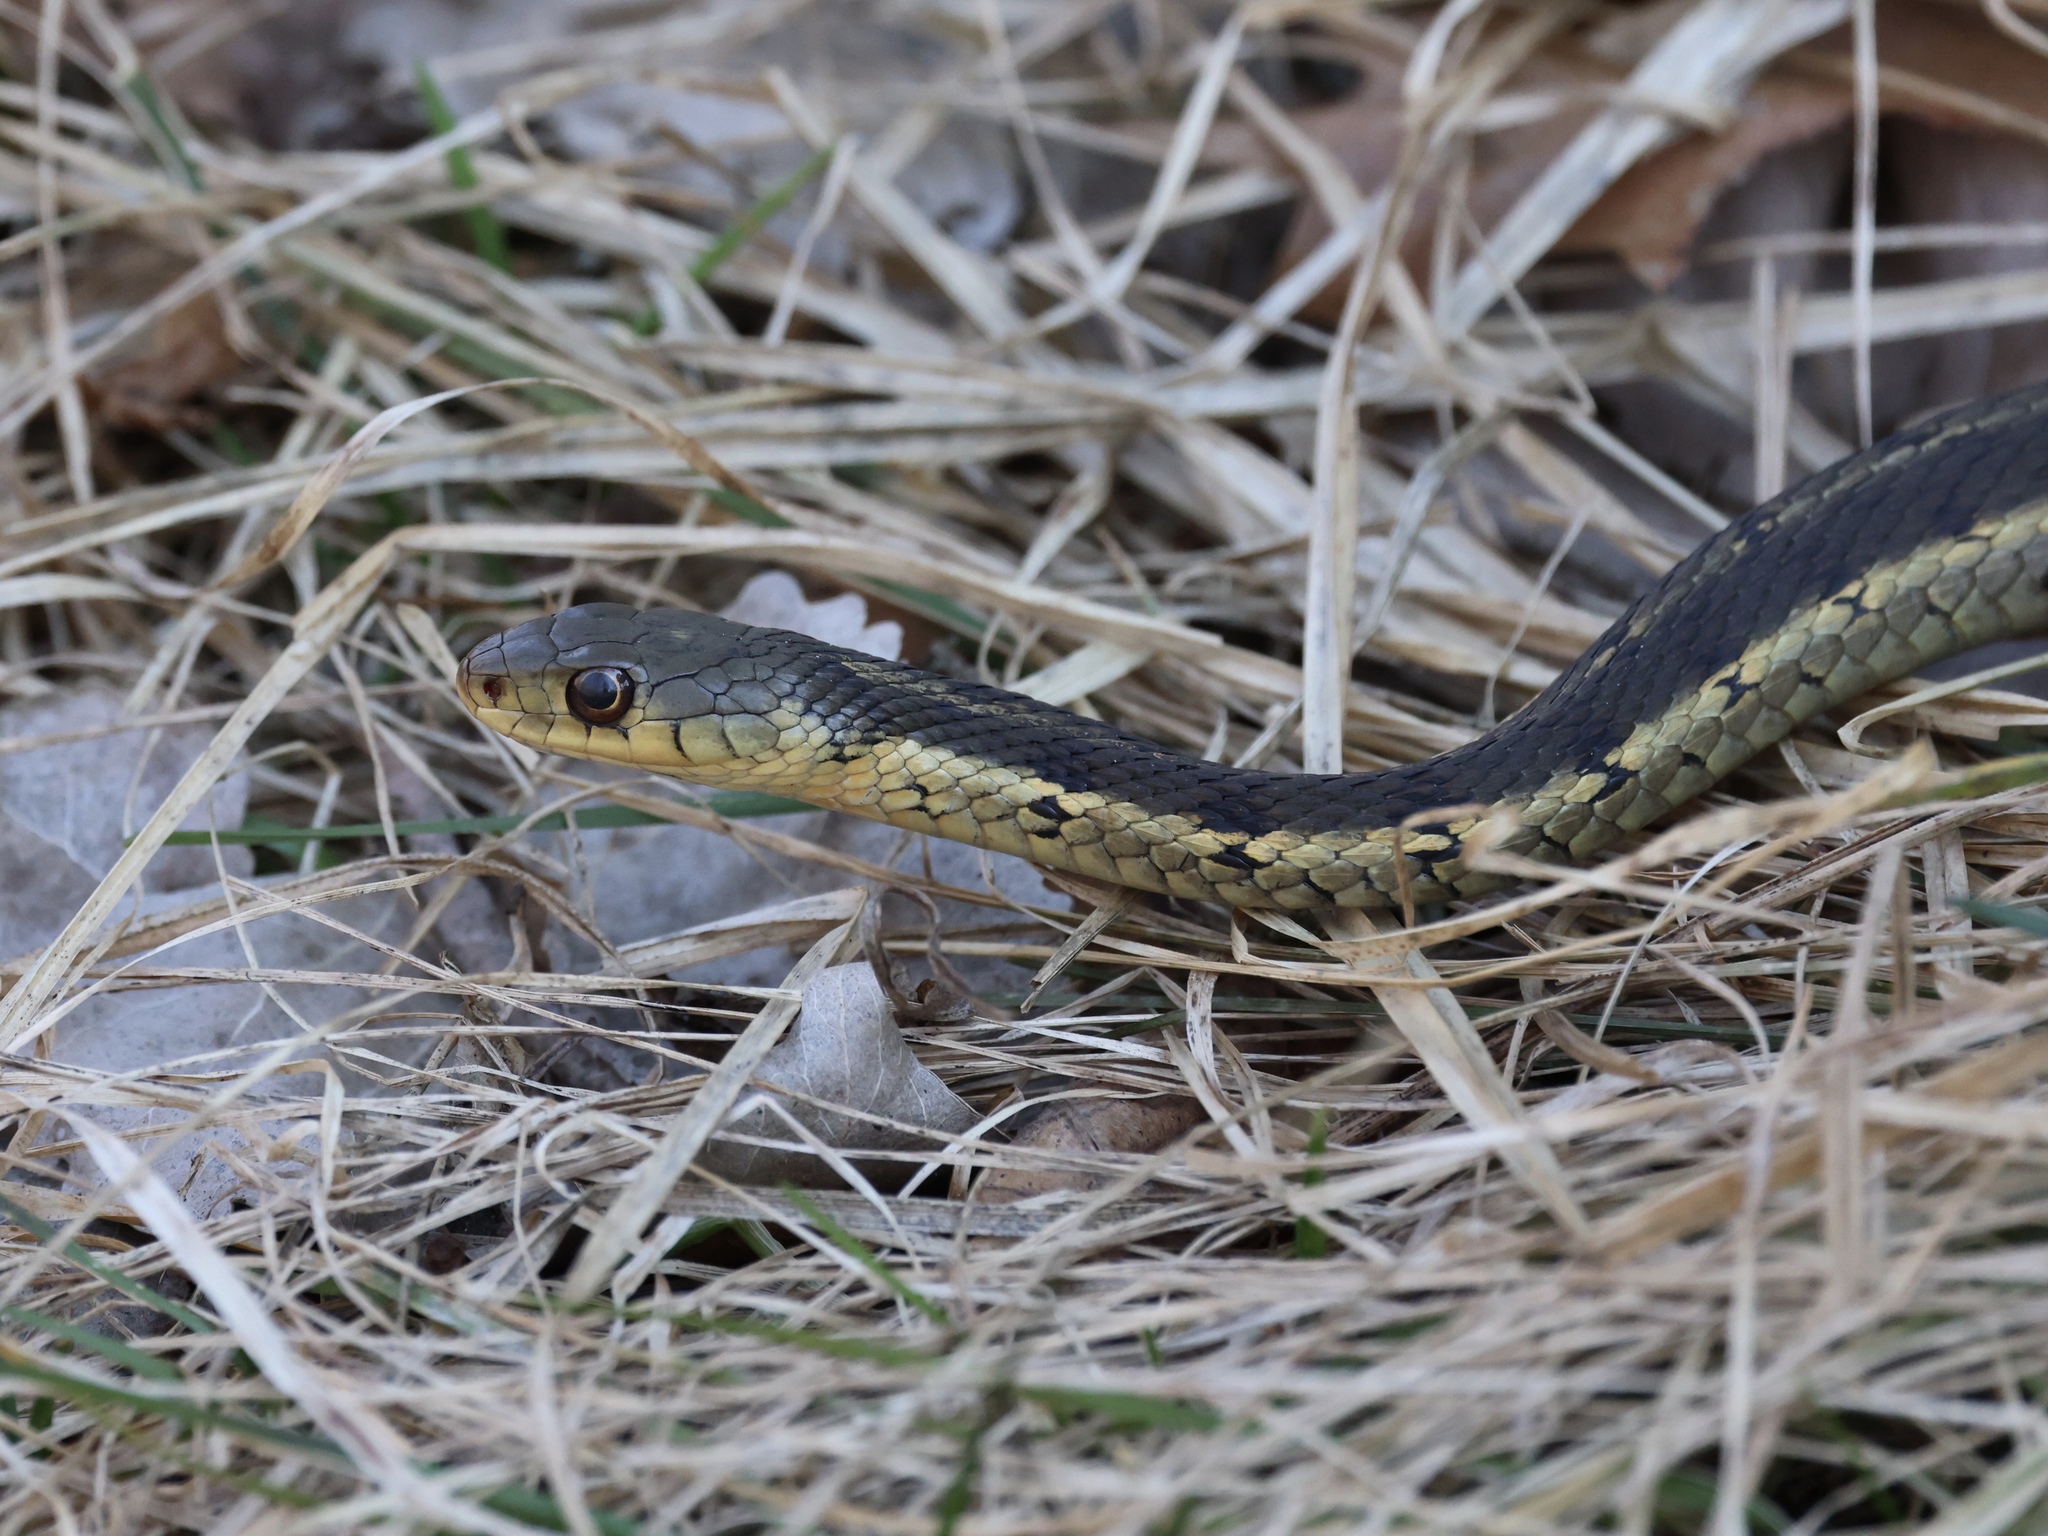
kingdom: Animalia
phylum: Chordata
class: Squamata
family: Colubridae
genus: Thamnophis
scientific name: Thamnophis sirtalis
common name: Common garter snake
